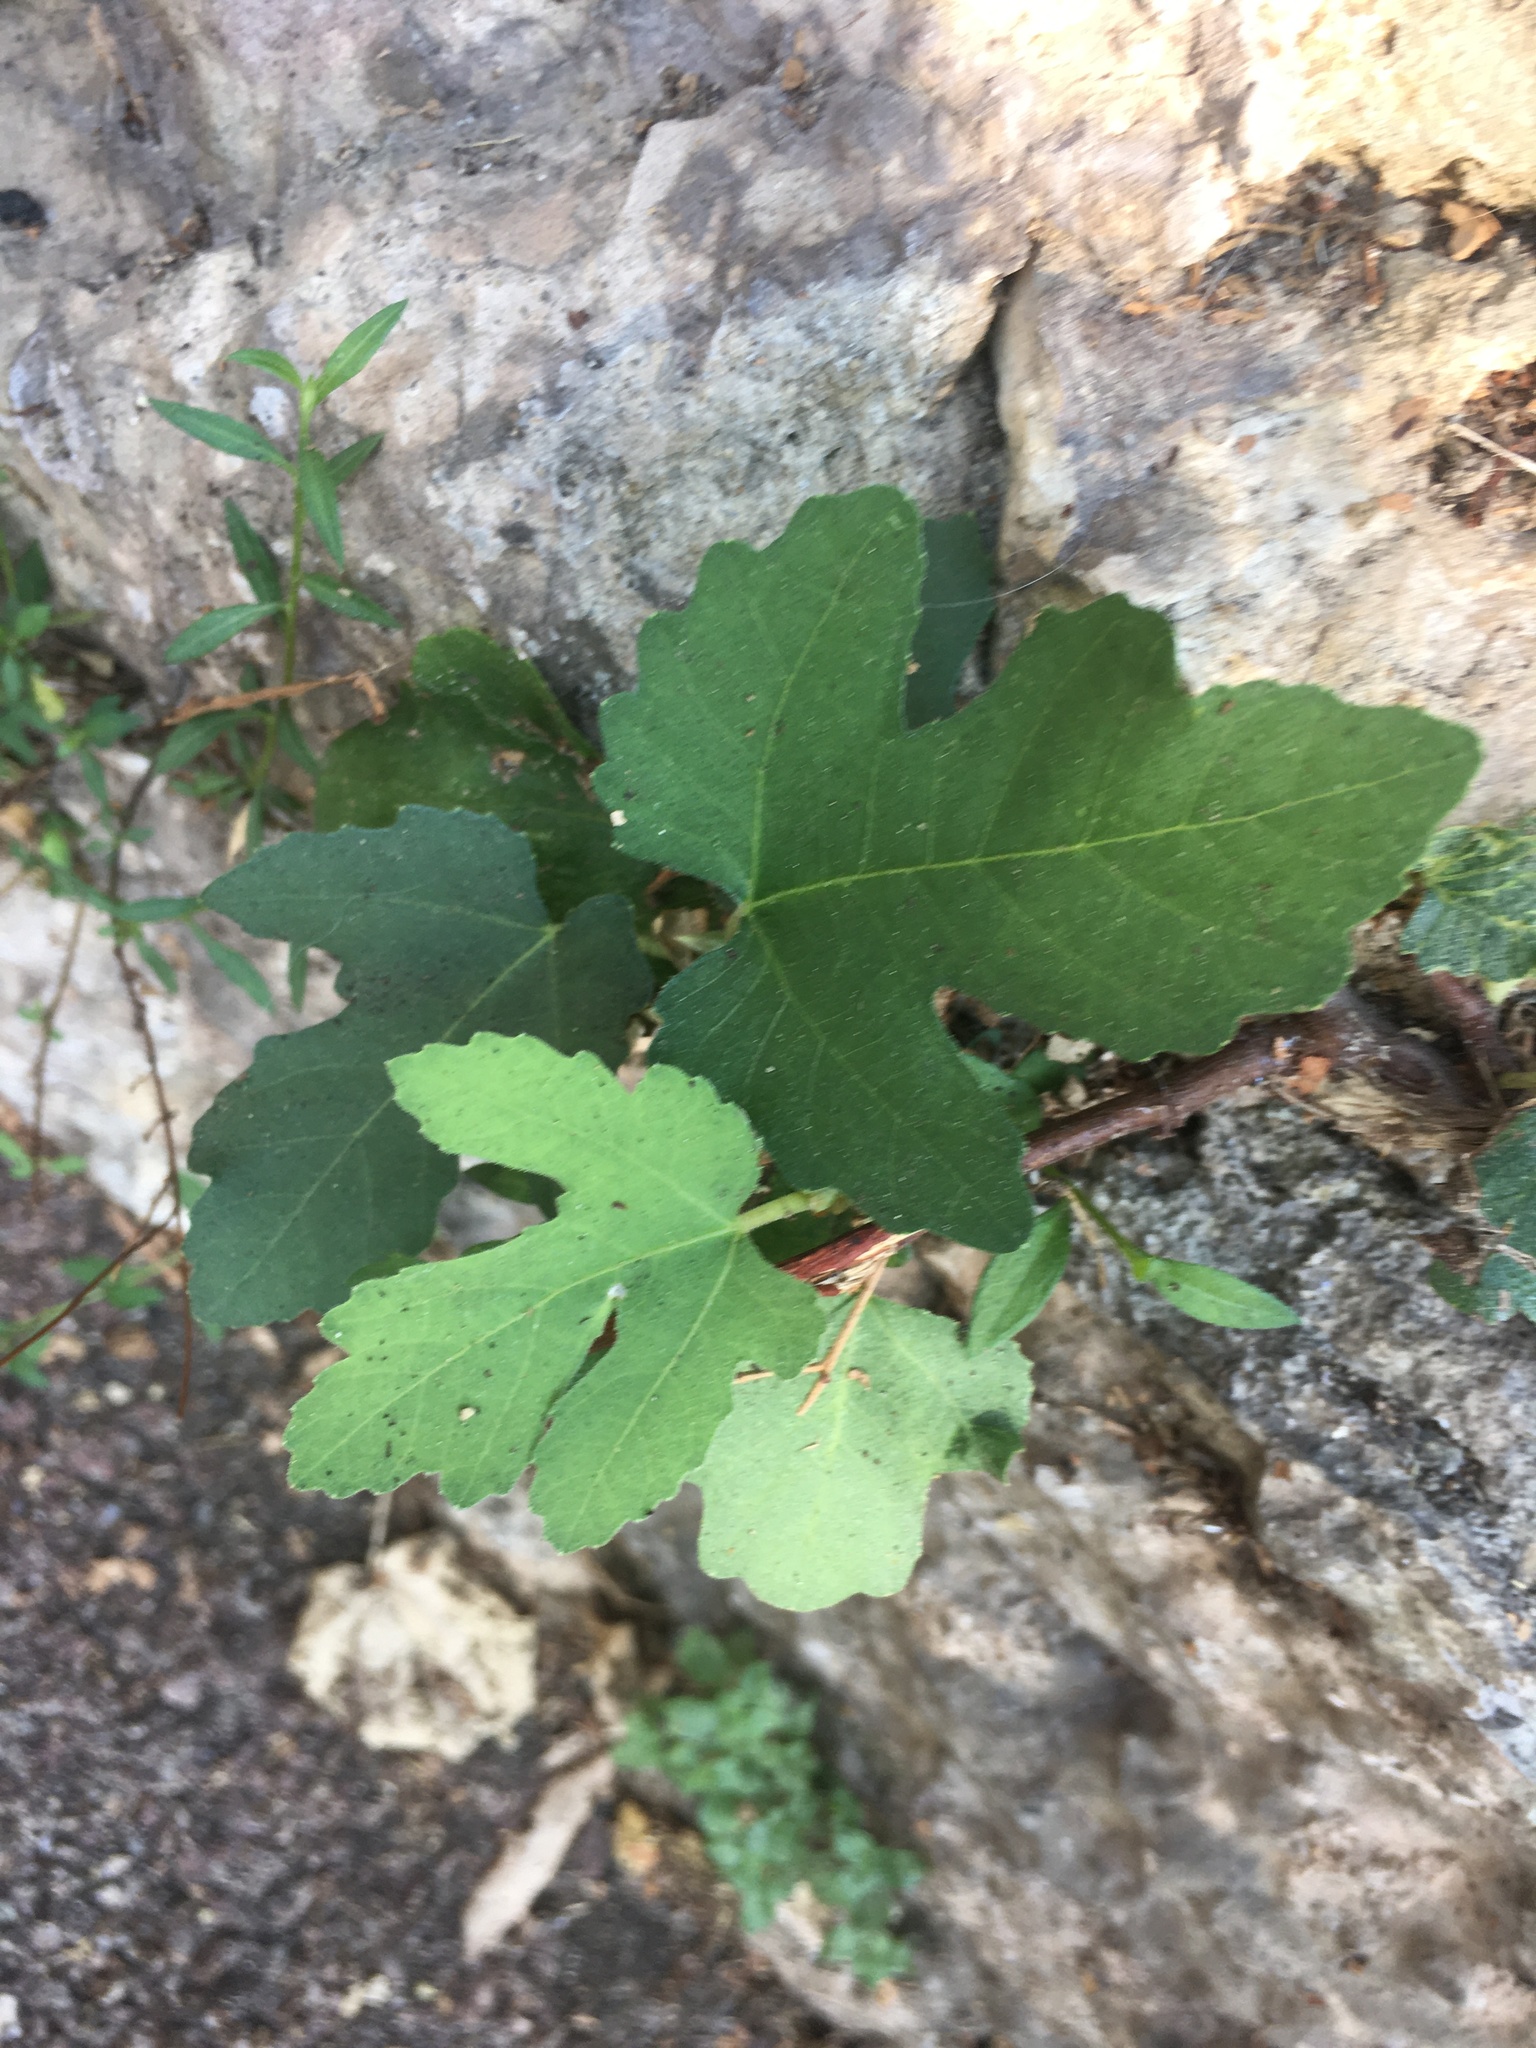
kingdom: Plantae
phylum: Tracheophyta
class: Magnoliopsida
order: Rosales
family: Moraceae
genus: Ficus
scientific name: Ficus carica
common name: Fig
